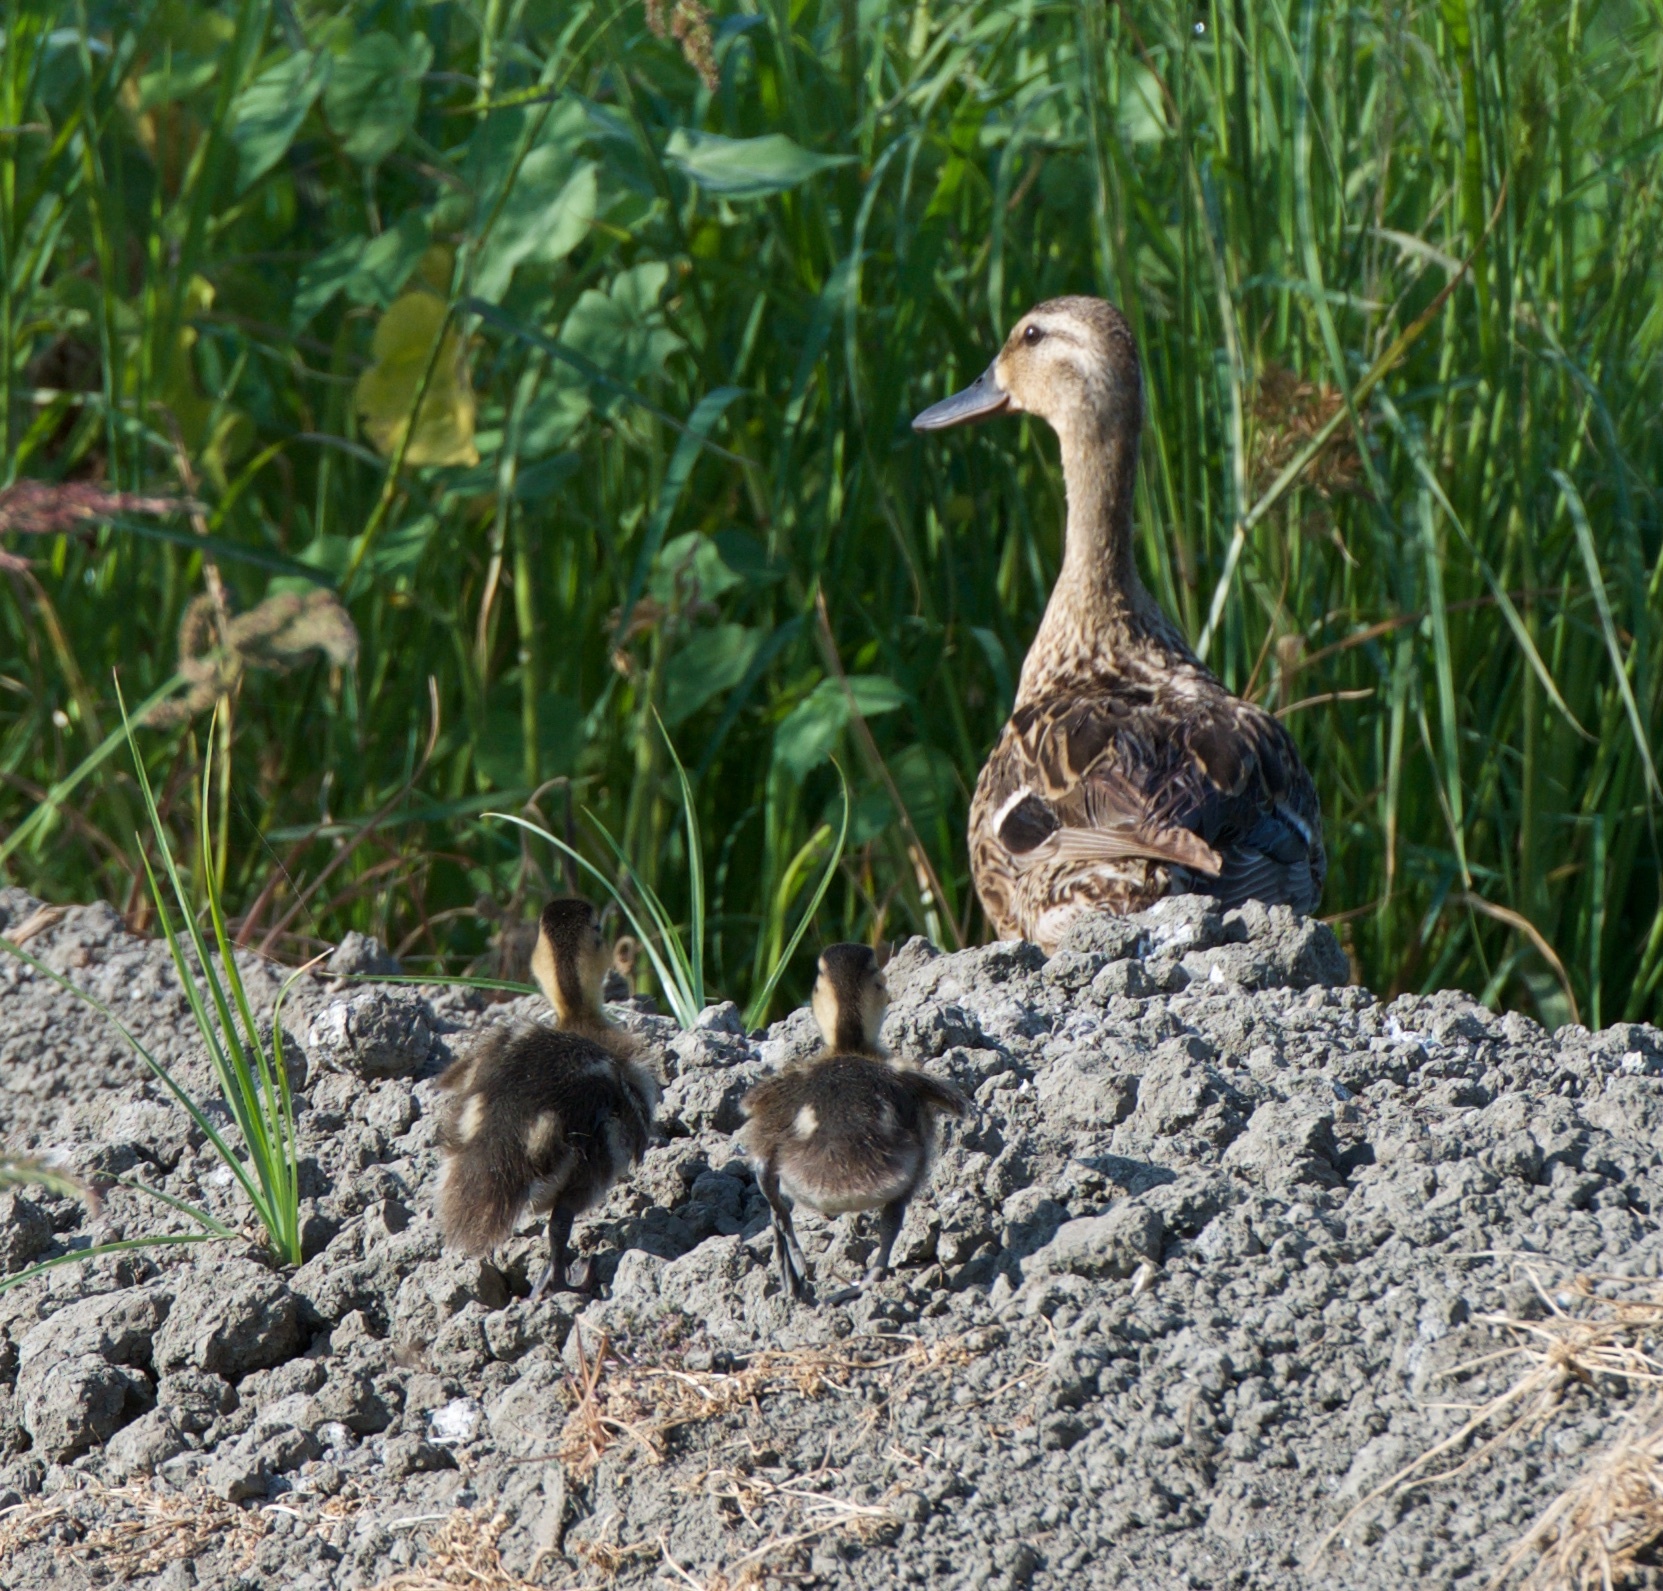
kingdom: Animalia
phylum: Chordata
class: Aves
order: Anseriformes
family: Anatidae
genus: Anas
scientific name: Anas platyrhynchos
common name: Mallard
